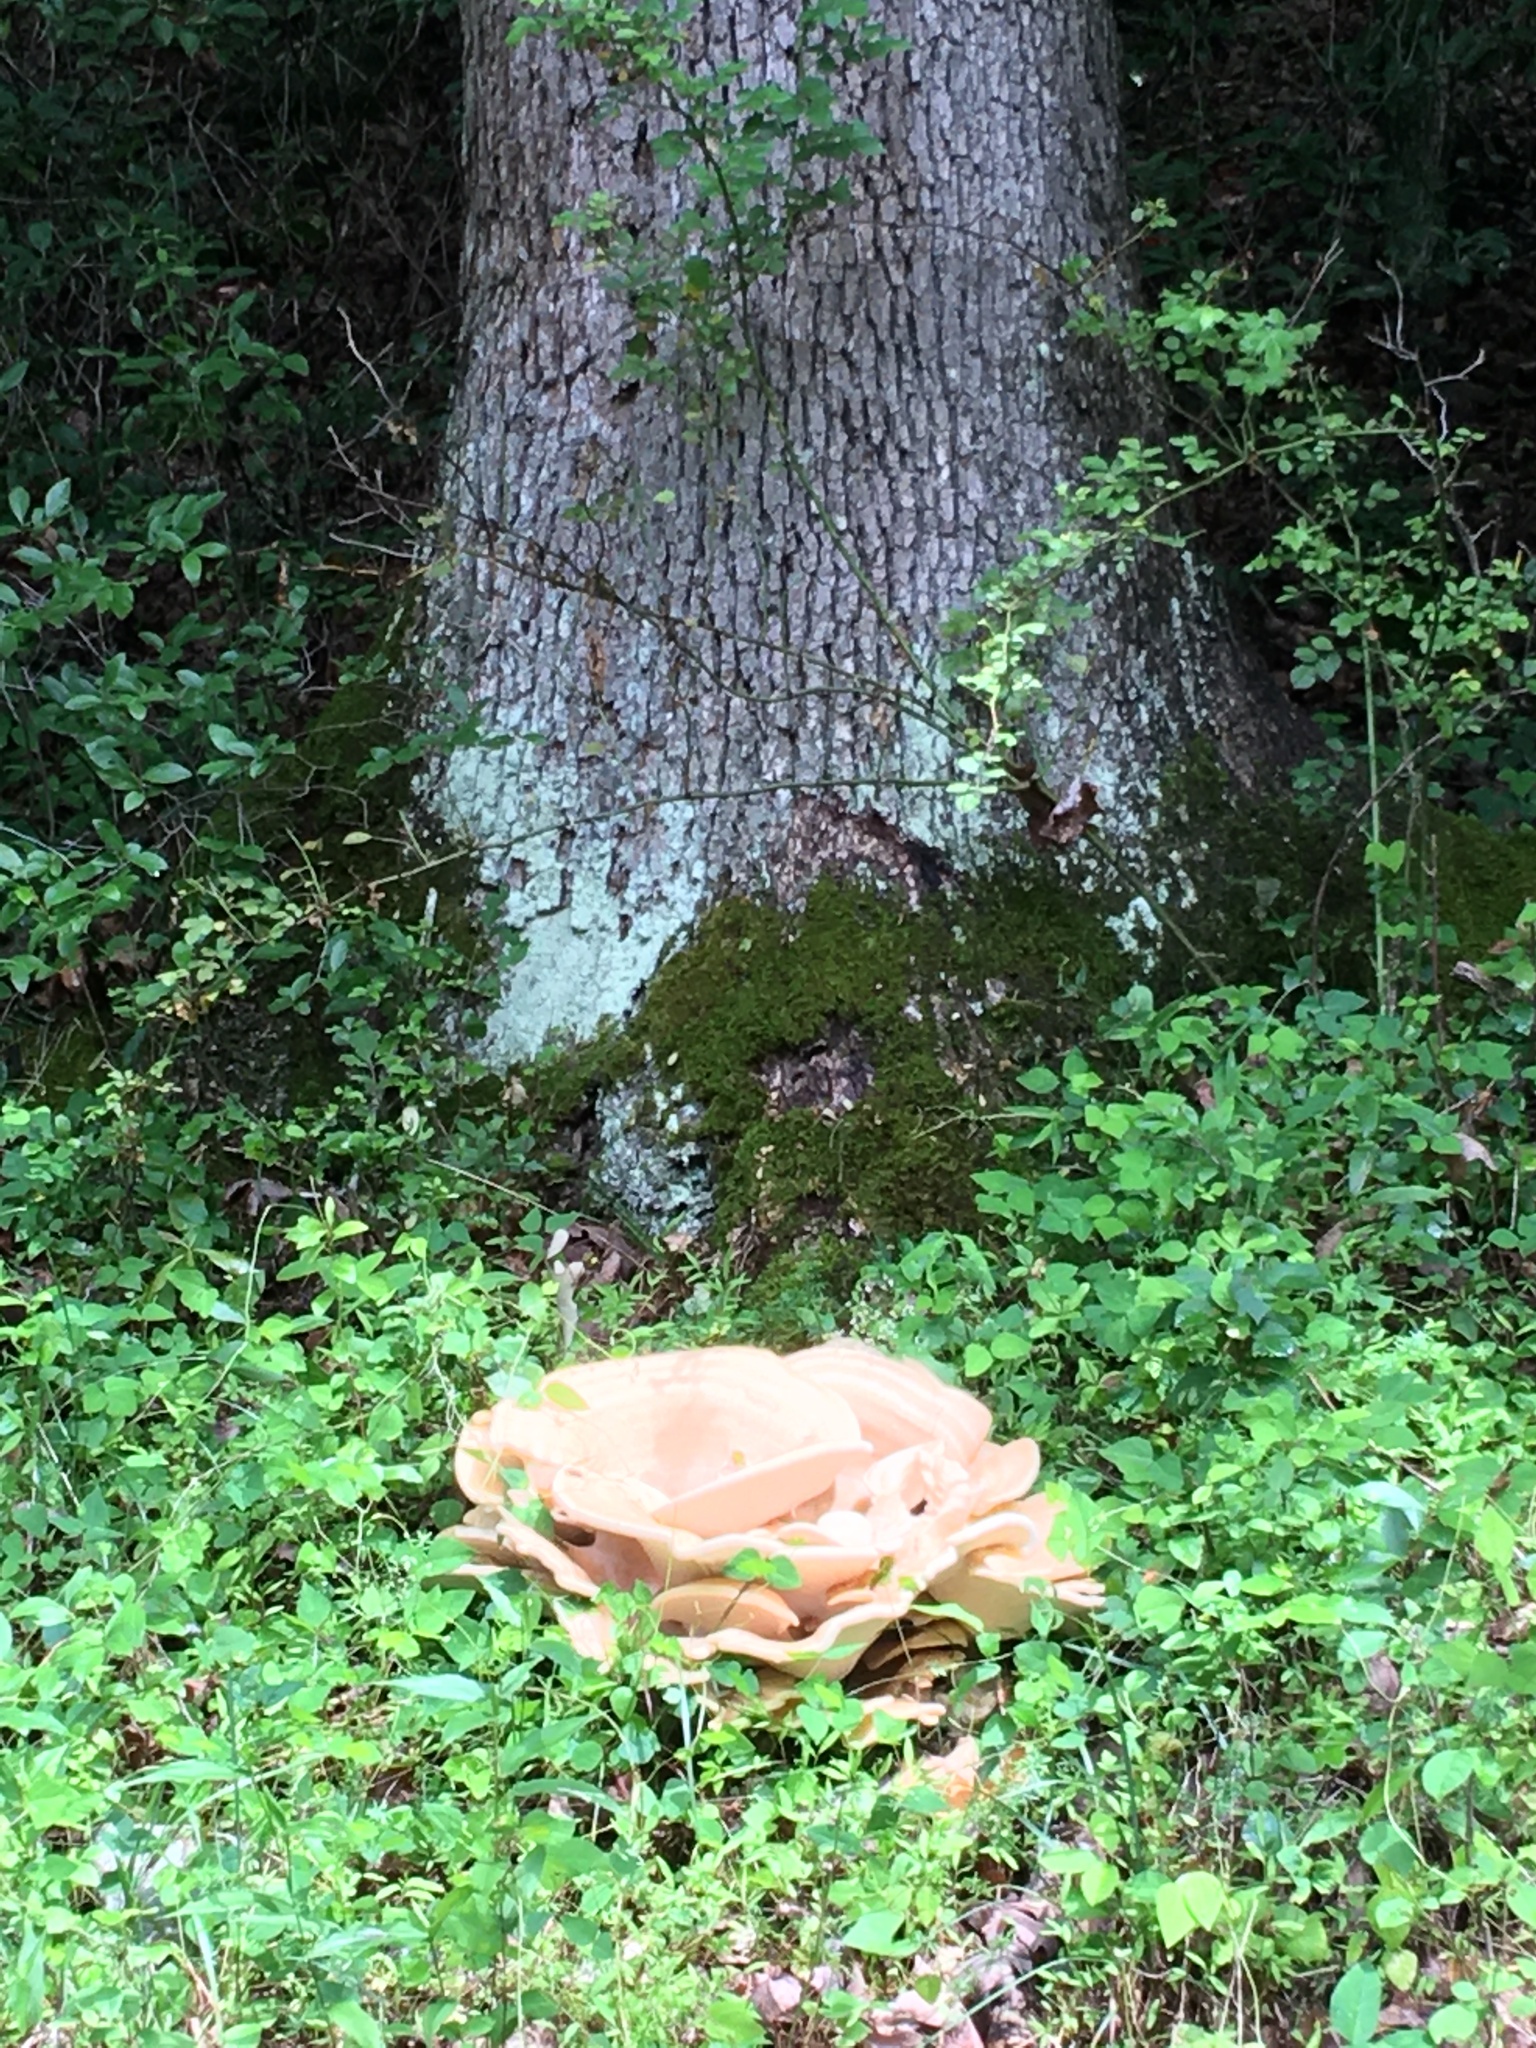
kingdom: Fungi
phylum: Basidiomycota
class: Agaricomycetes
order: Russulales
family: Bondarzewiaceae
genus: Bondarzewia
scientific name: Bondarzewia berkeleyi
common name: Berkeley's polypore
